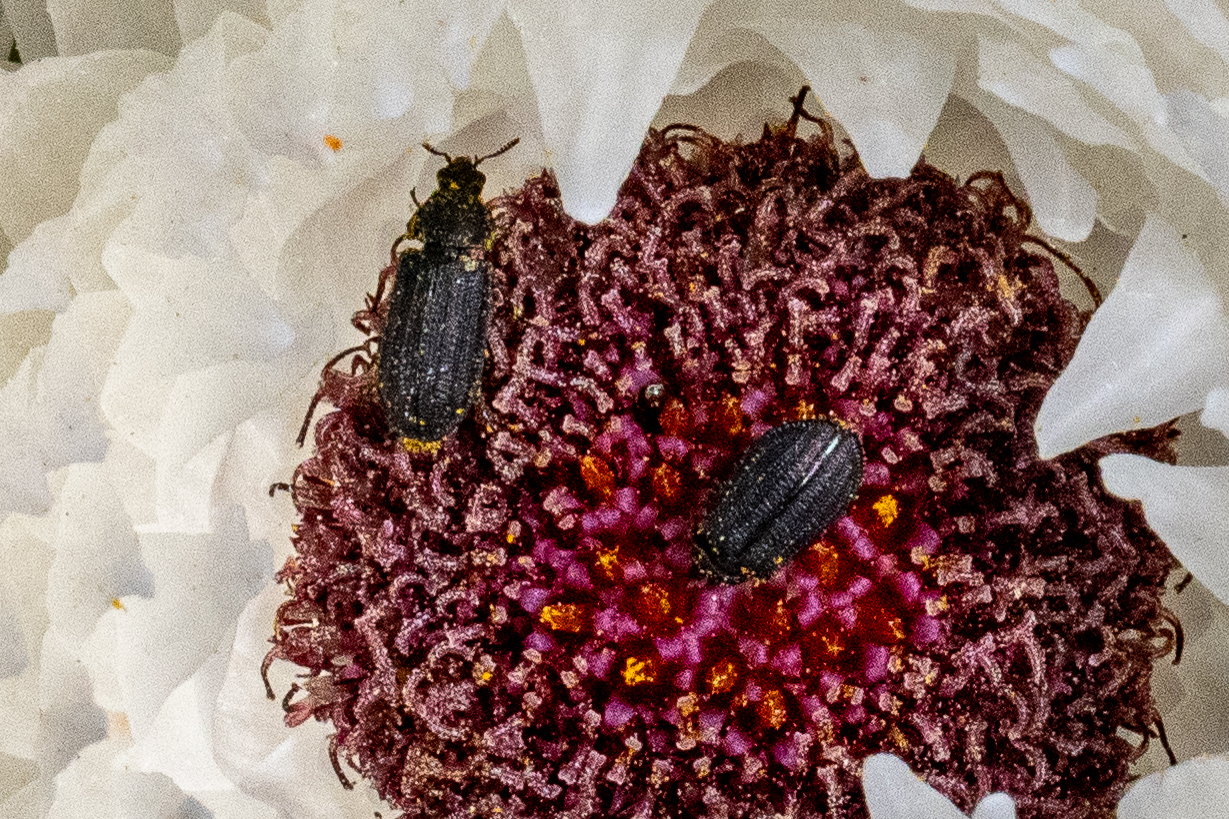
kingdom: Animalia
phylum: Arthropoda
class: Insecta
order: Coleoptera
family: Melyridae
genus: Melyris
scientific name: Melyris
